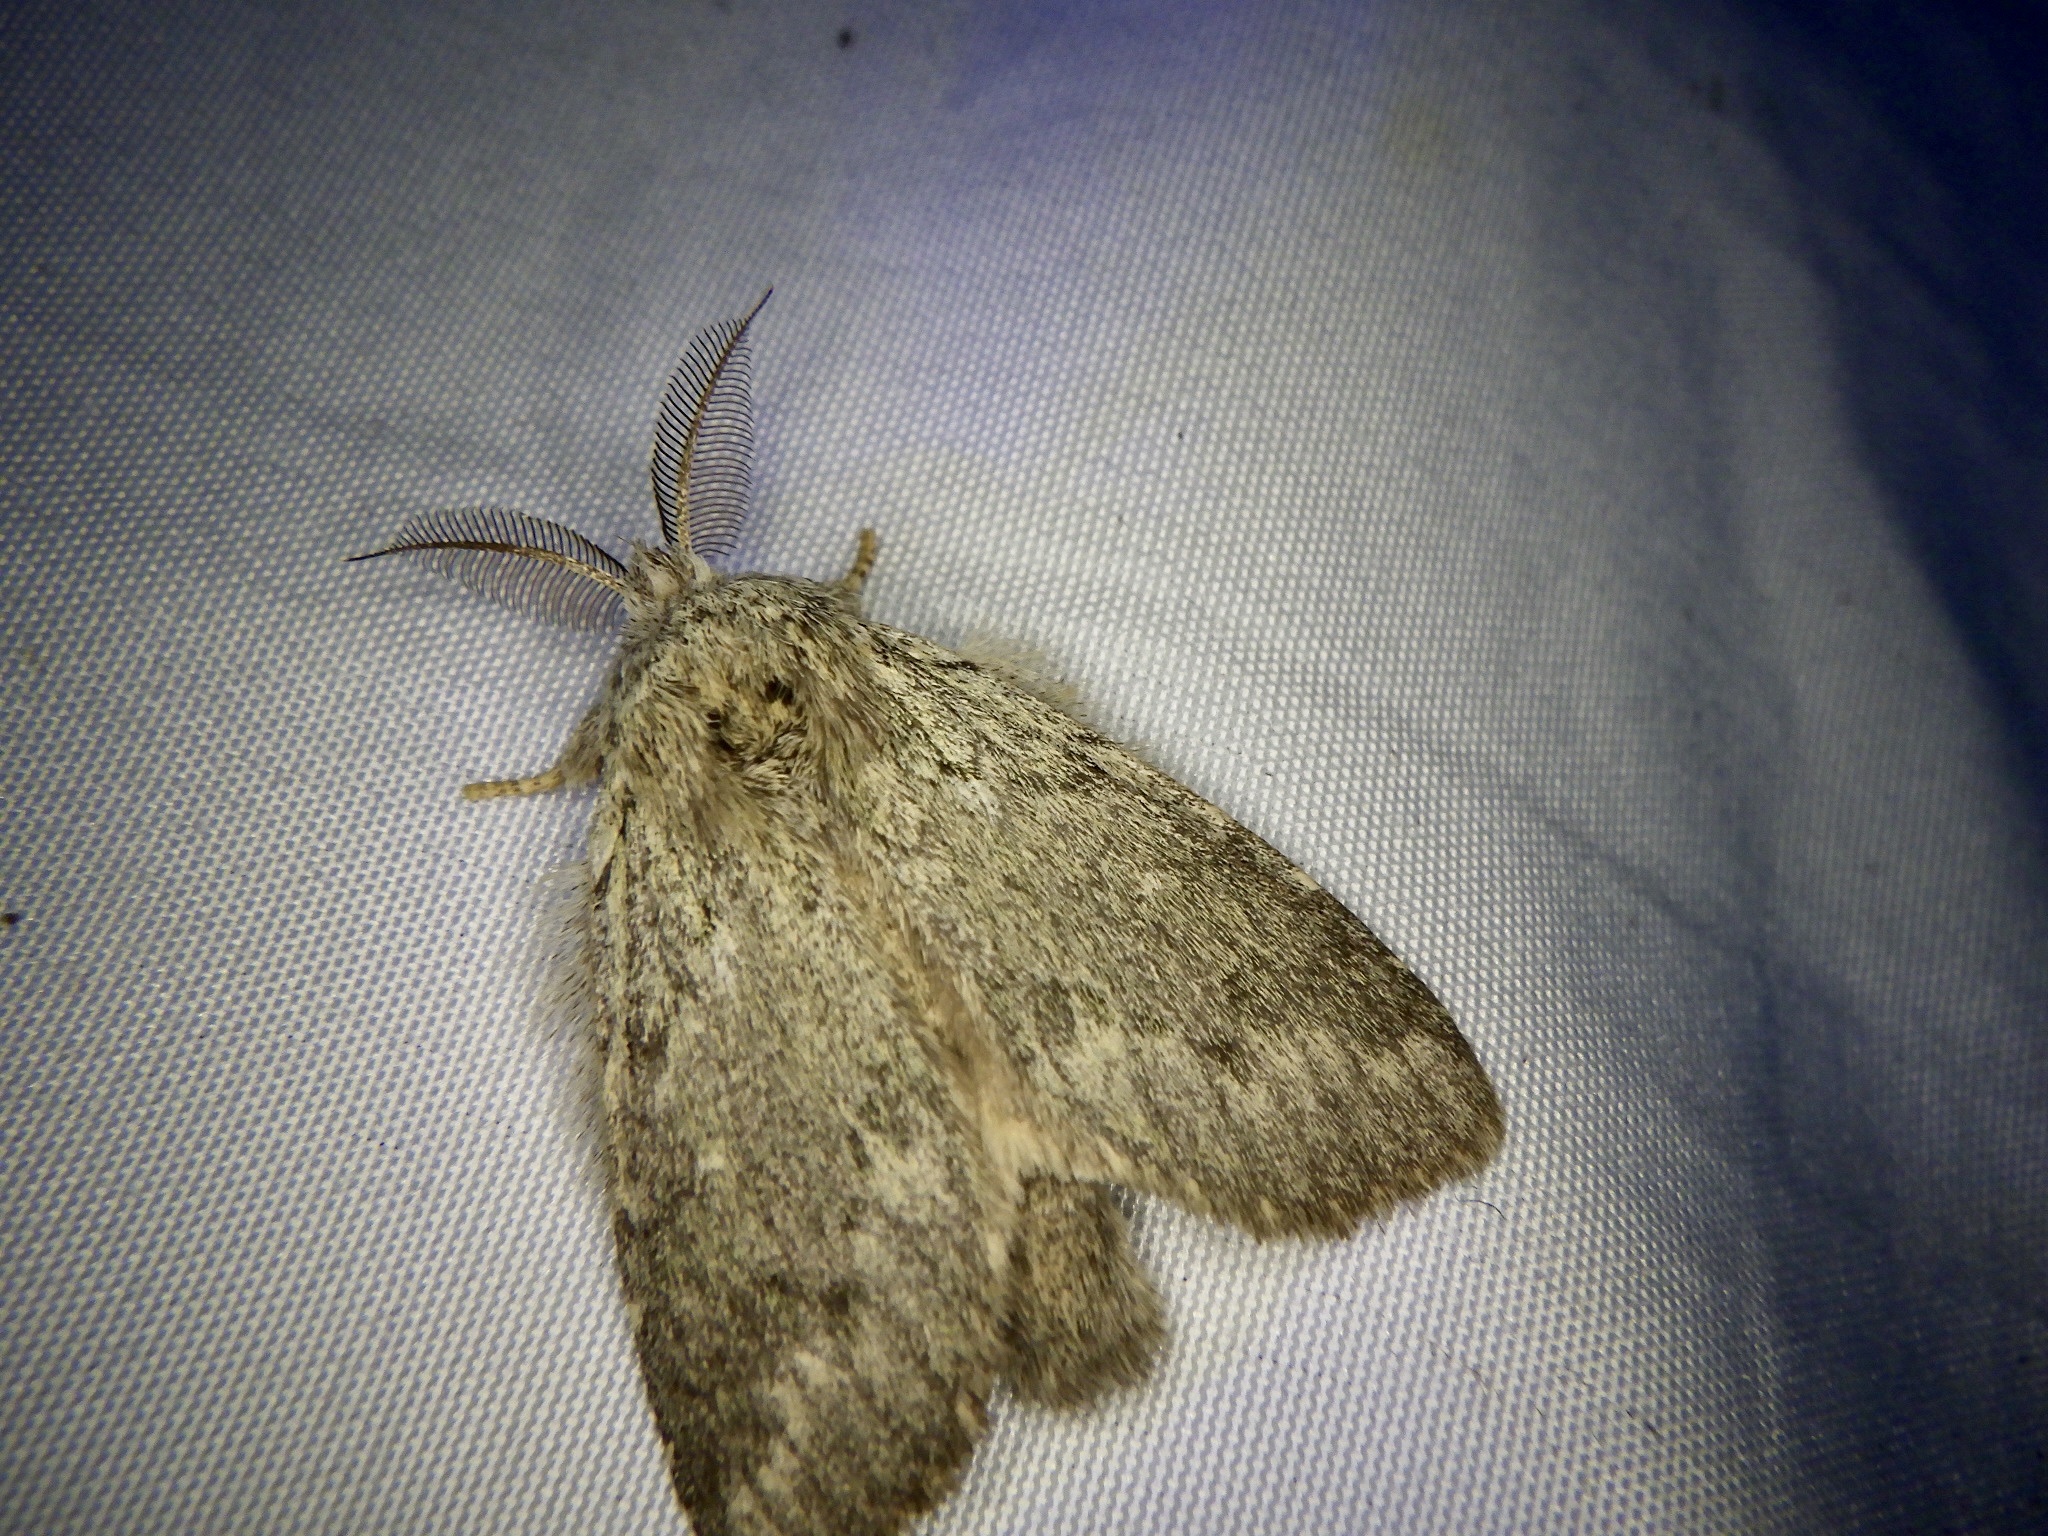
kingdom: Animalia
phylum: Arthropoda
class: Insecta
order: Lepidoptera
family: Notodontidae
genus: Syntypistis
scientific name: Syntypistis
